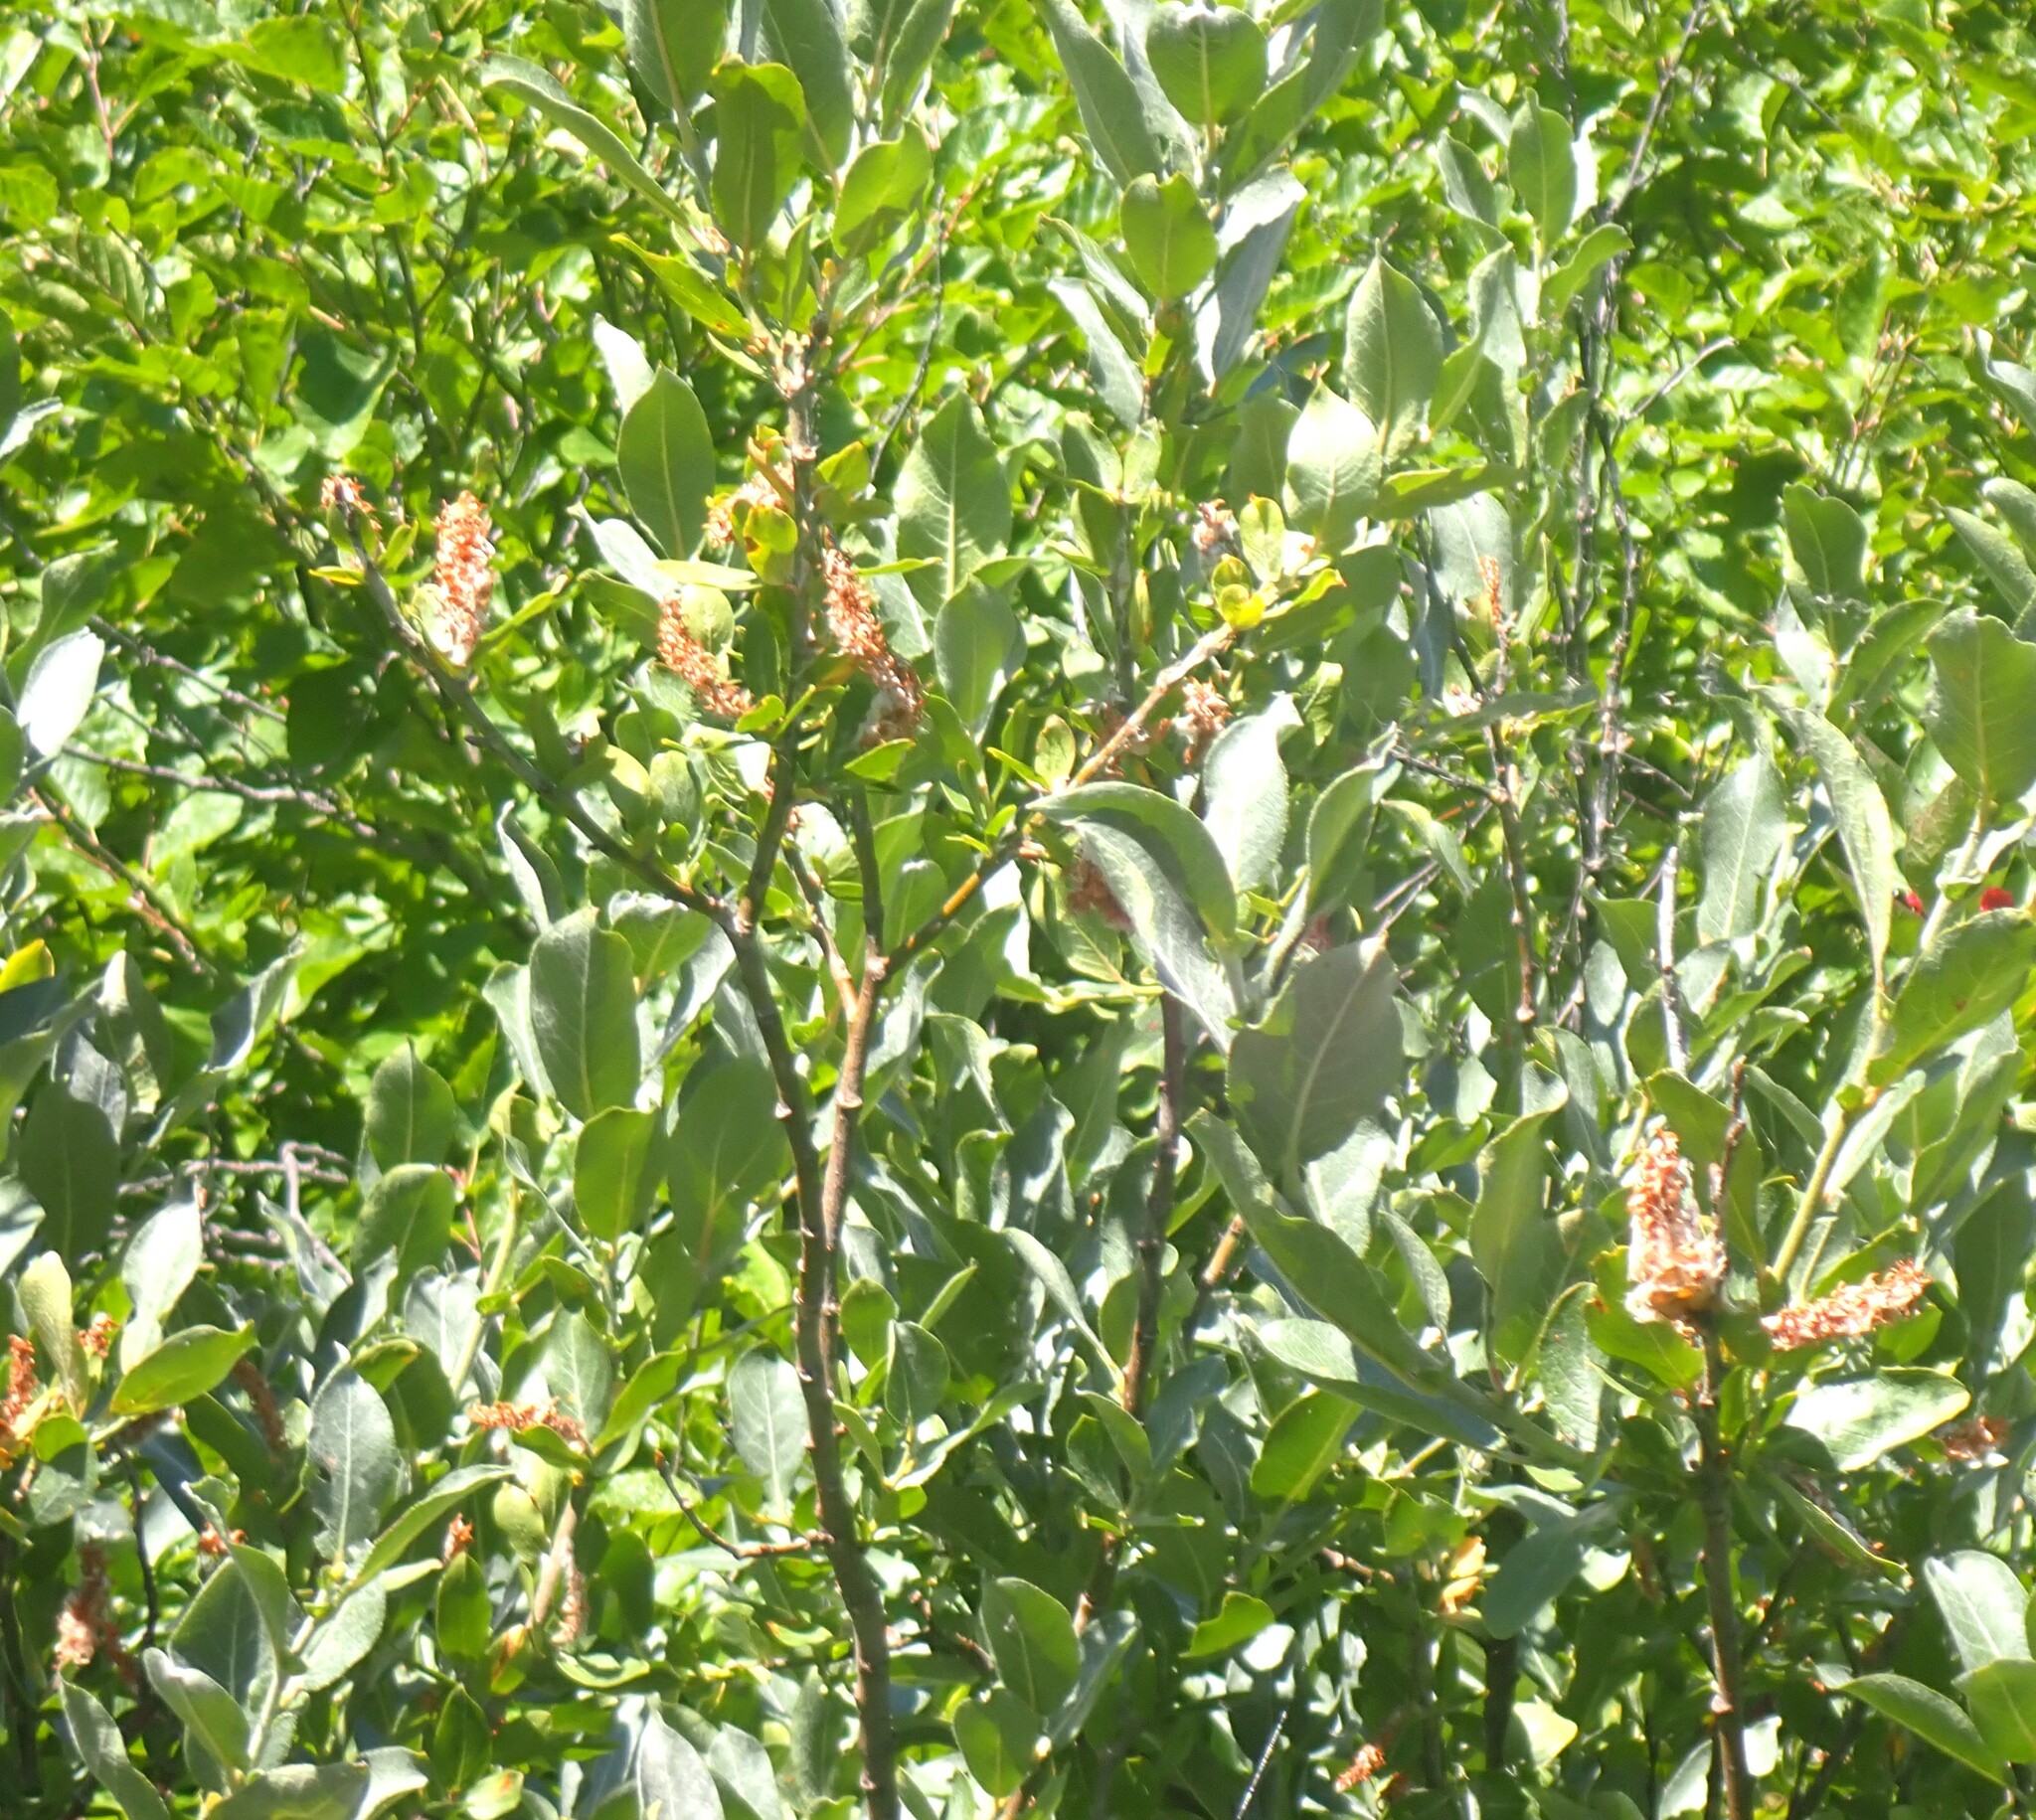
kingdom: Plantae
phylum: Tracheophyta
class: Magnoliopsida
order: Malpighiales
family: Salicaceae
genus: Salix
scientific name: Salix commutata
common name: Under-green willow
